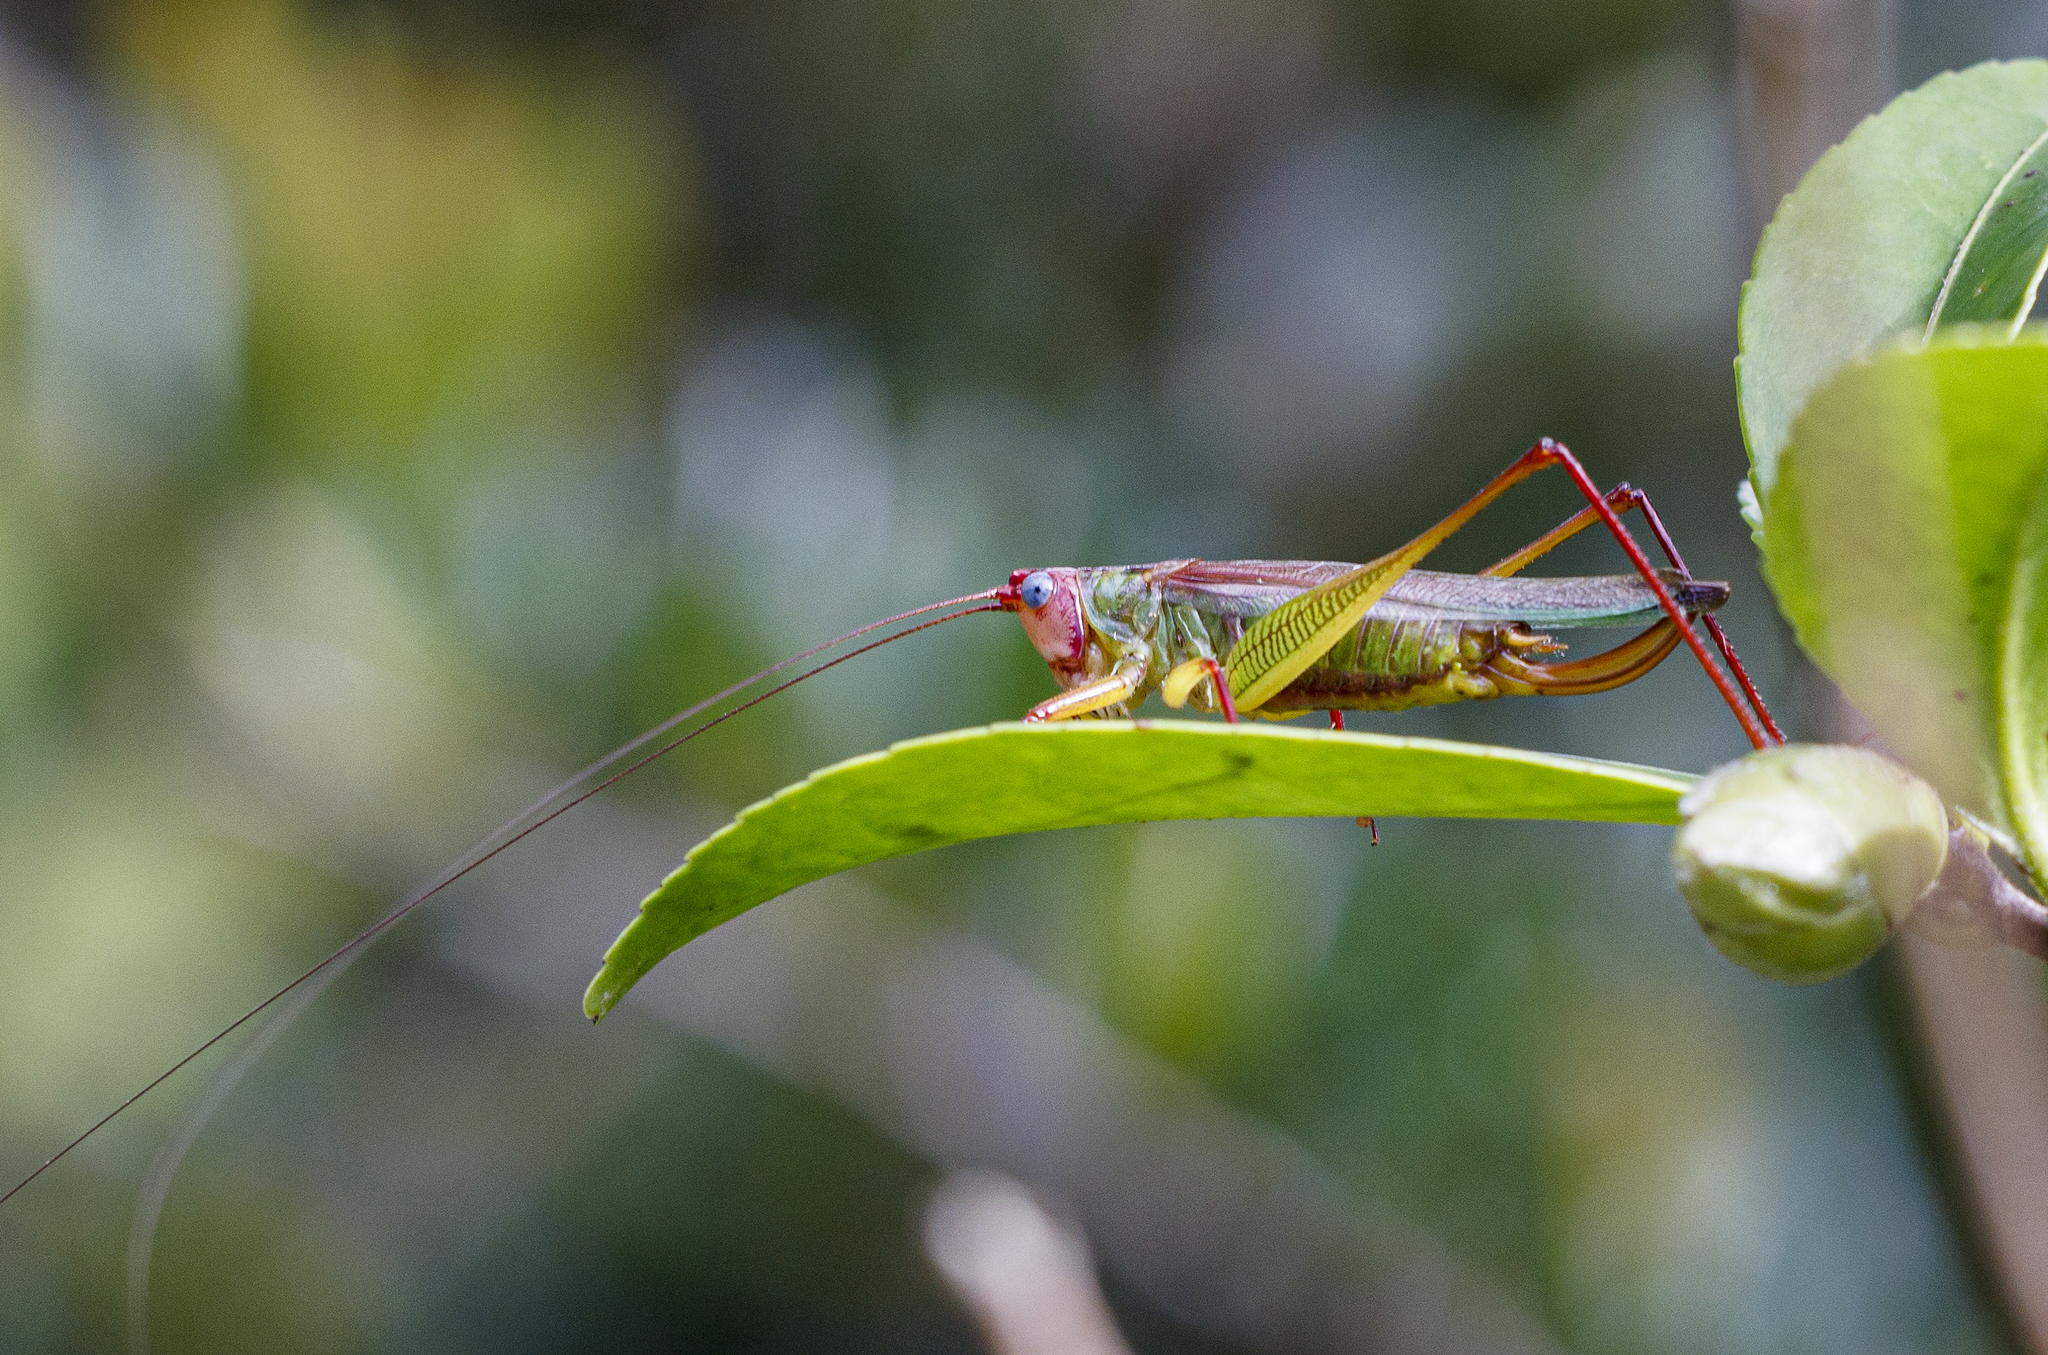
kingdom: Animalia
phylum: Arthropoda
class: Insecta
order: Orthoptera
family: Tettigoniidae
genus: Orchelimum
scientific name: Orchelimum pulchellum
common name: Handsome meadow katydid
